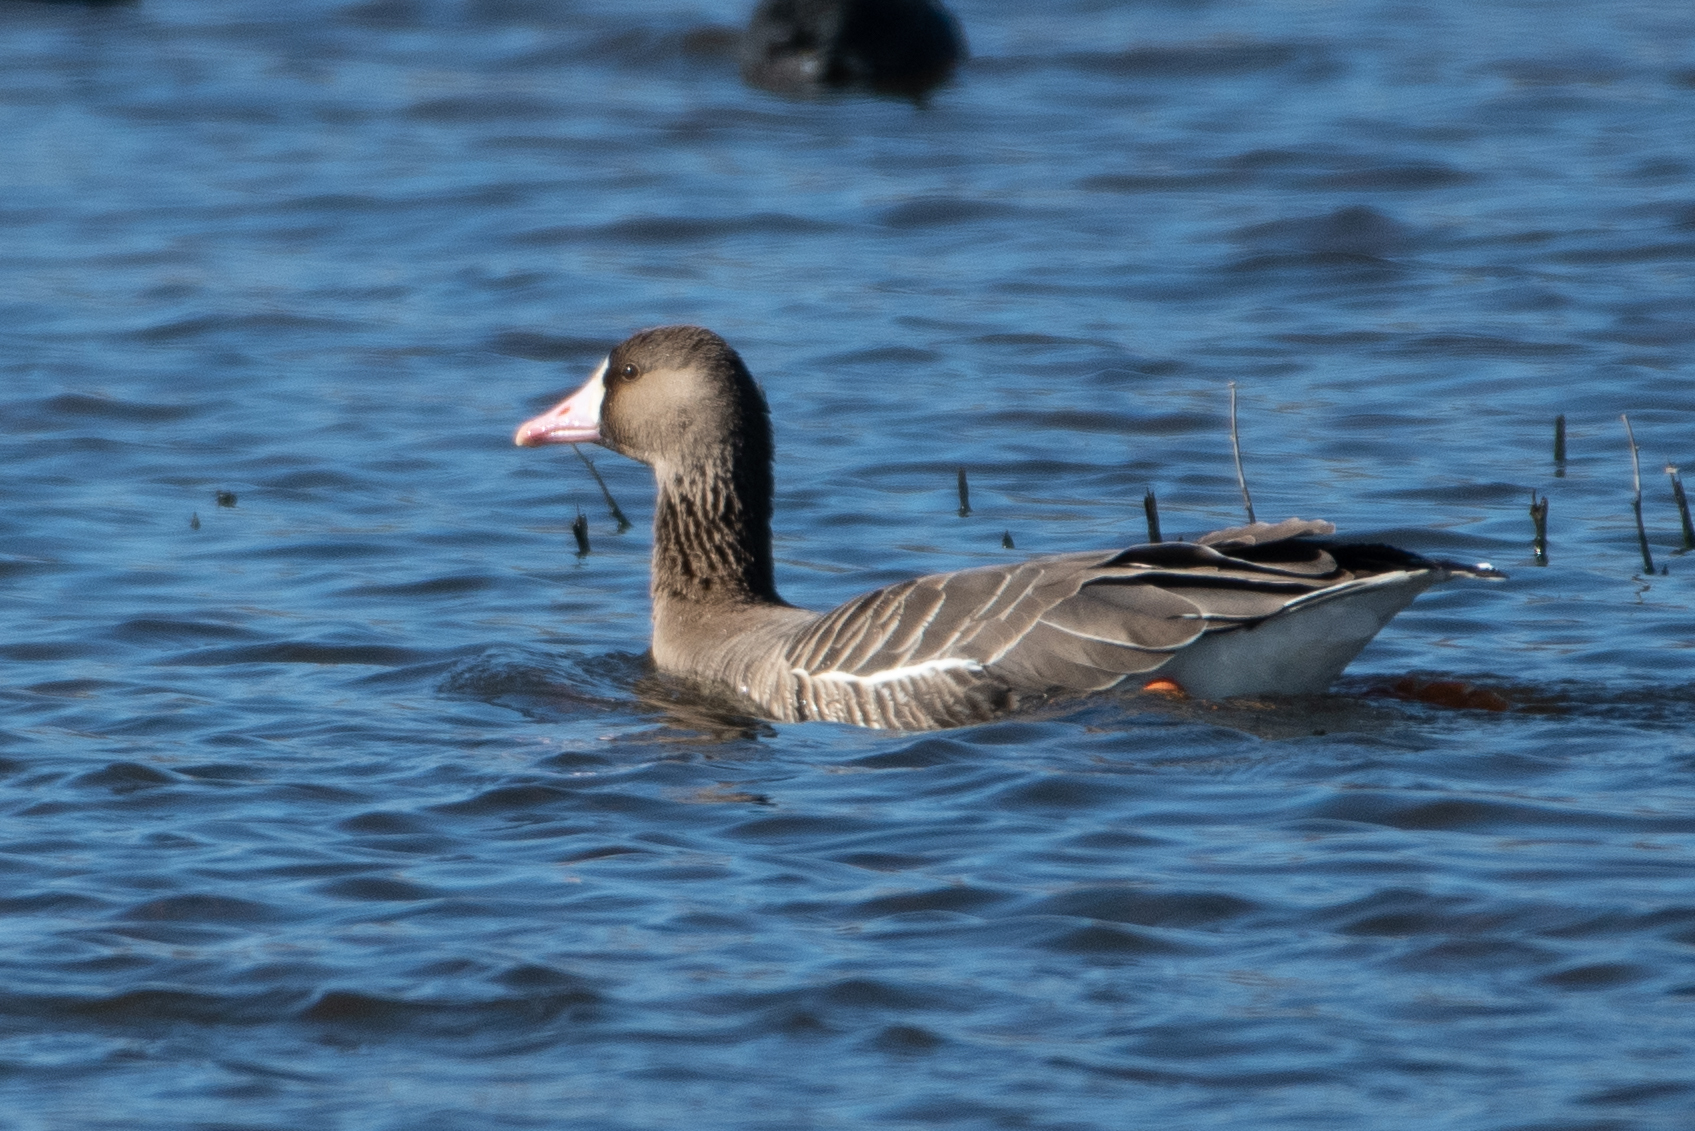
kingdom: Animalia
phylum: Chordata
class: Aves
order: Anseriformes
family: Anatidae
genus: Anser
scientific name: Anser albifrons
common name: Greater white-fronted goose
